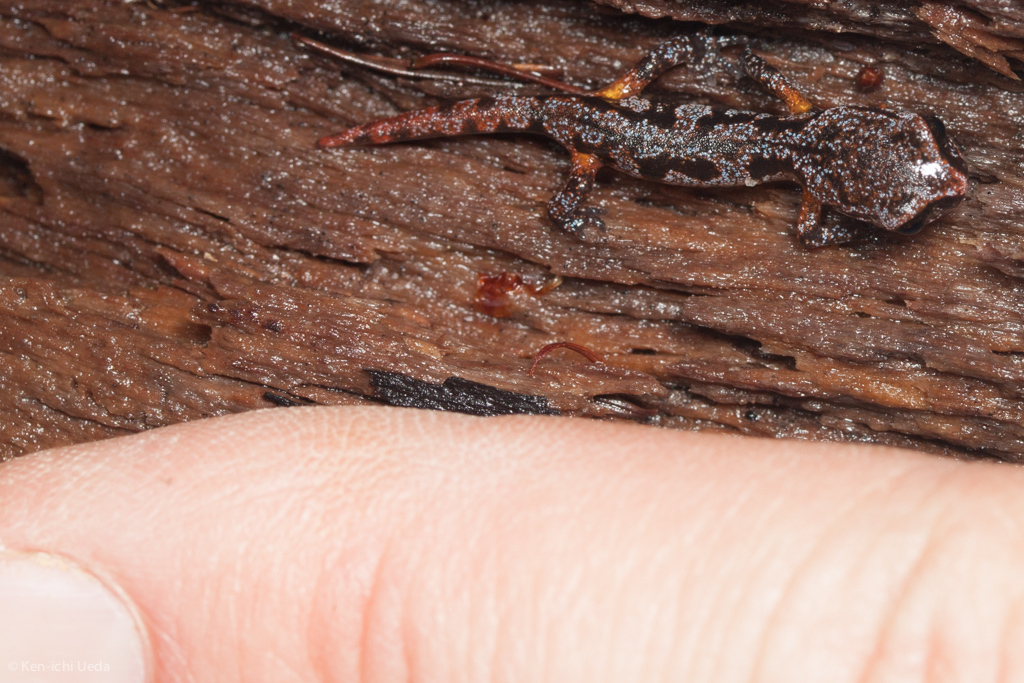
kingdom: Animalia
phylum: Chordata
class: Amphibia
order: Caudata
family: Plethodontidae
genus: Ensatina
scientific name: Ensatina eschscholtzii
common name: Ensatina
